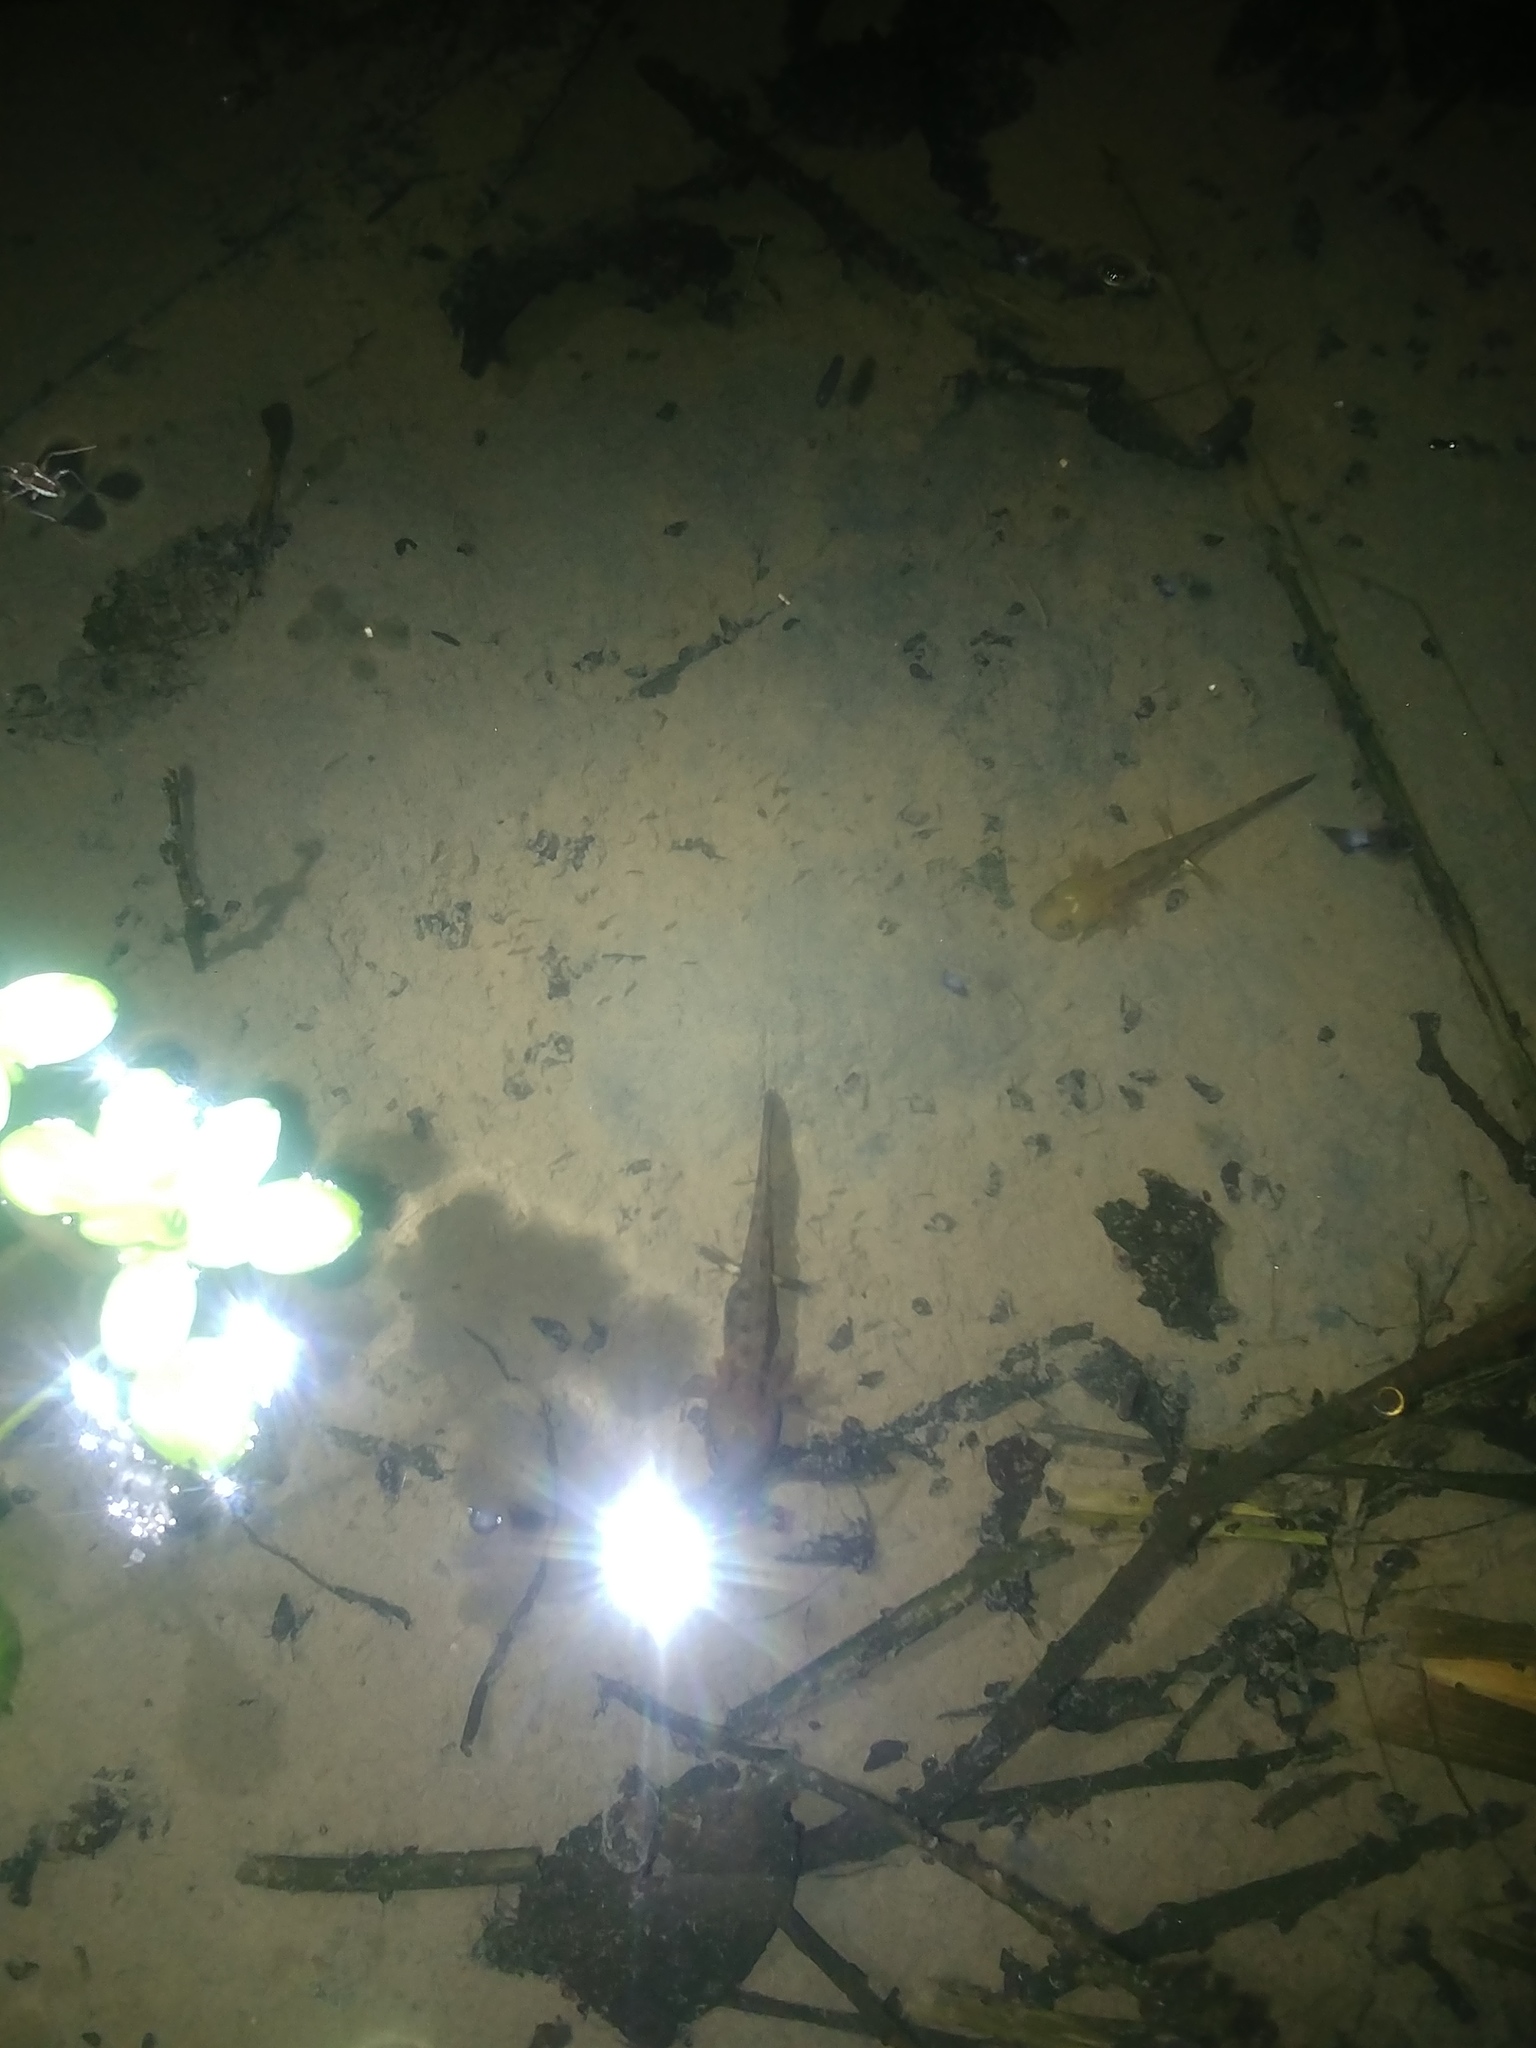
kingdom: Animalia
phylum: Chordata
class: Amphibia
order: Caudata
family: Salamandridae
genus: Salamandra
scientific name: Salamandra salamandra
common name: Fire salamander
